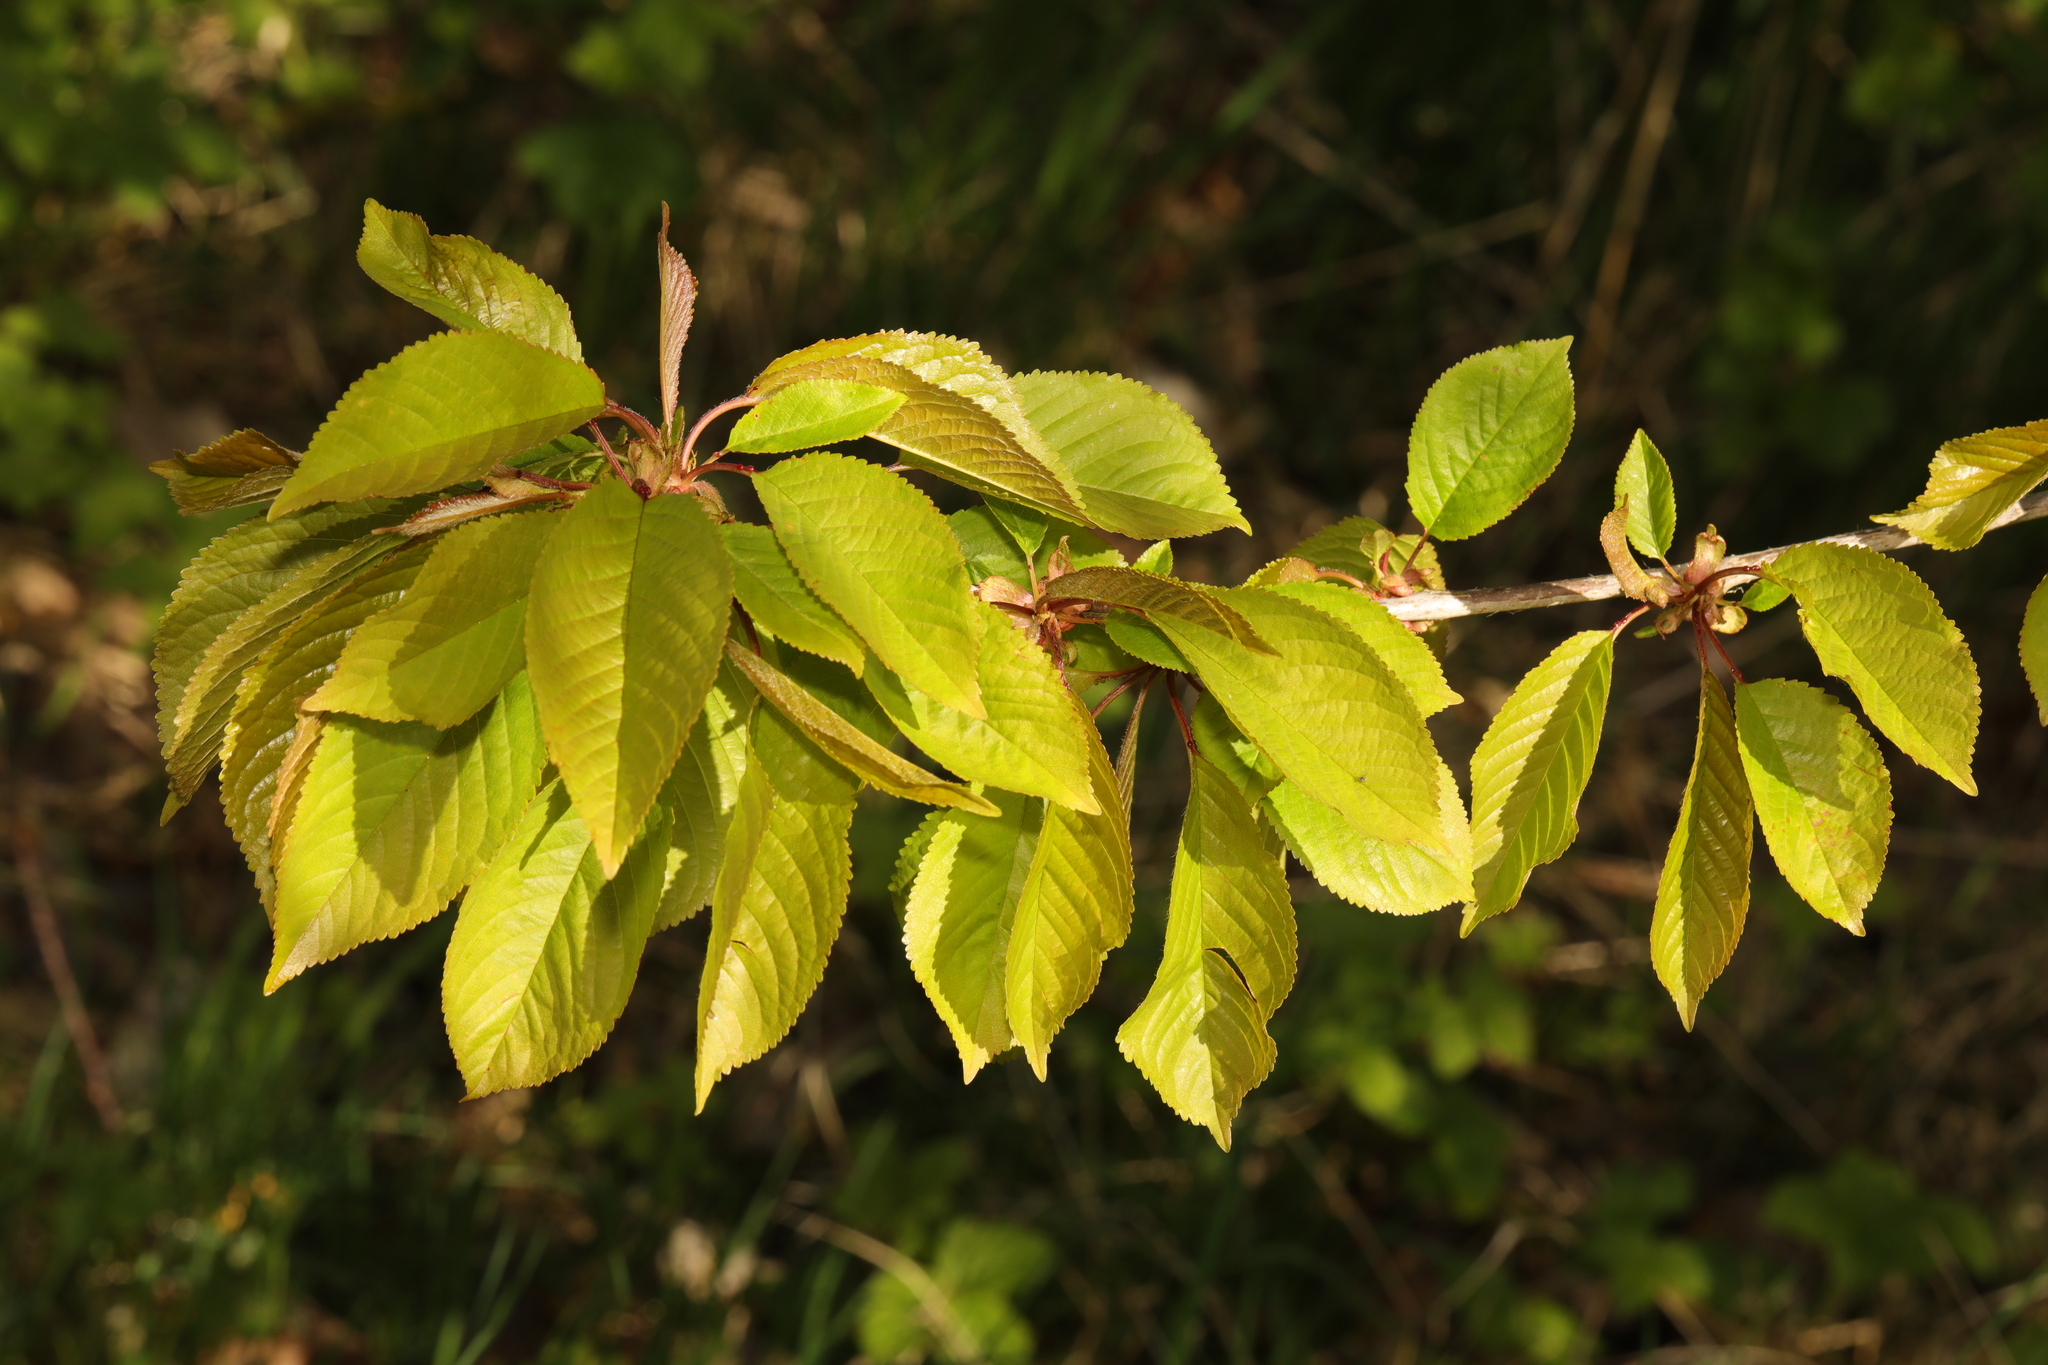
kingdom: Plantae
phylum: Tracheophyta
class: Magnoliopsida
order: Rosales
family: Rosaceae
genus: Prunus
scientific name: Prunus avium
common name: Sweet cherry
